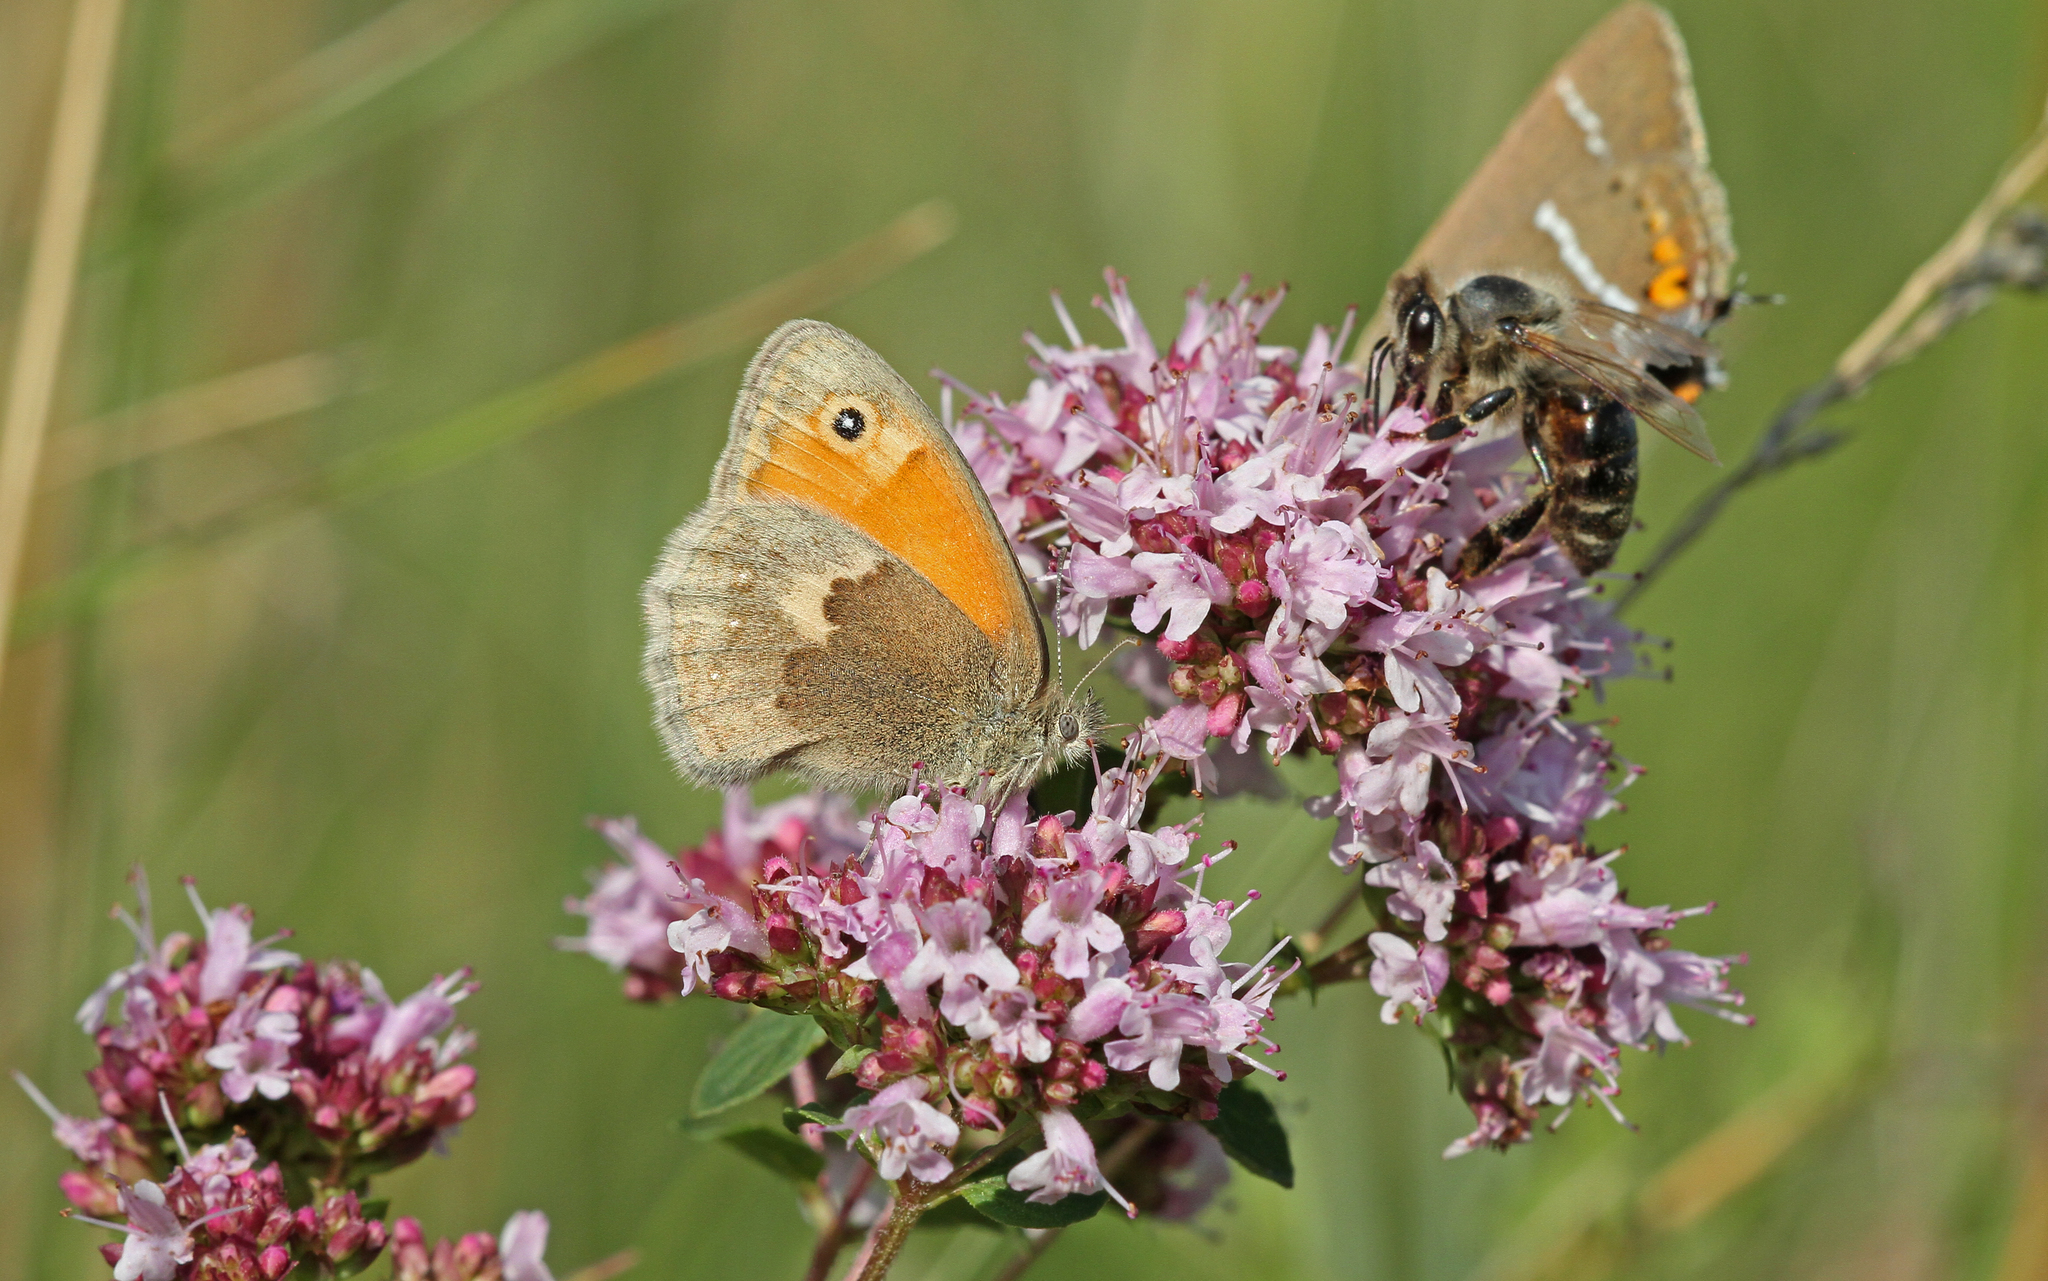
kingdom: Animalia
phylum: Arthropoda
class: Insecta
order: Lepidoptera
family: Nymphalidae
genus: Coenonympha
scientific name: Coenonympha pamphilus
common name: Small heath
